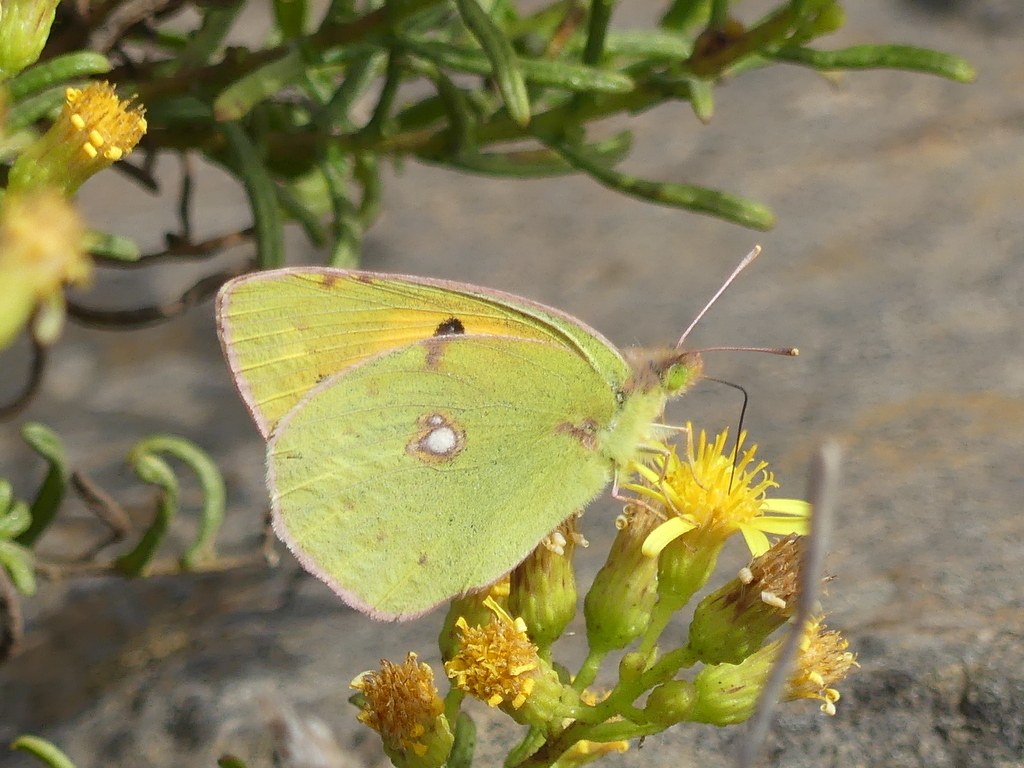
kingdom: Animalia
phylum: Arthropoda
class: Insecta
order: Lepidoptera
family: Pieridae
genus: Colias
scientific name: Colias croceus
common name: Clouded yellow
